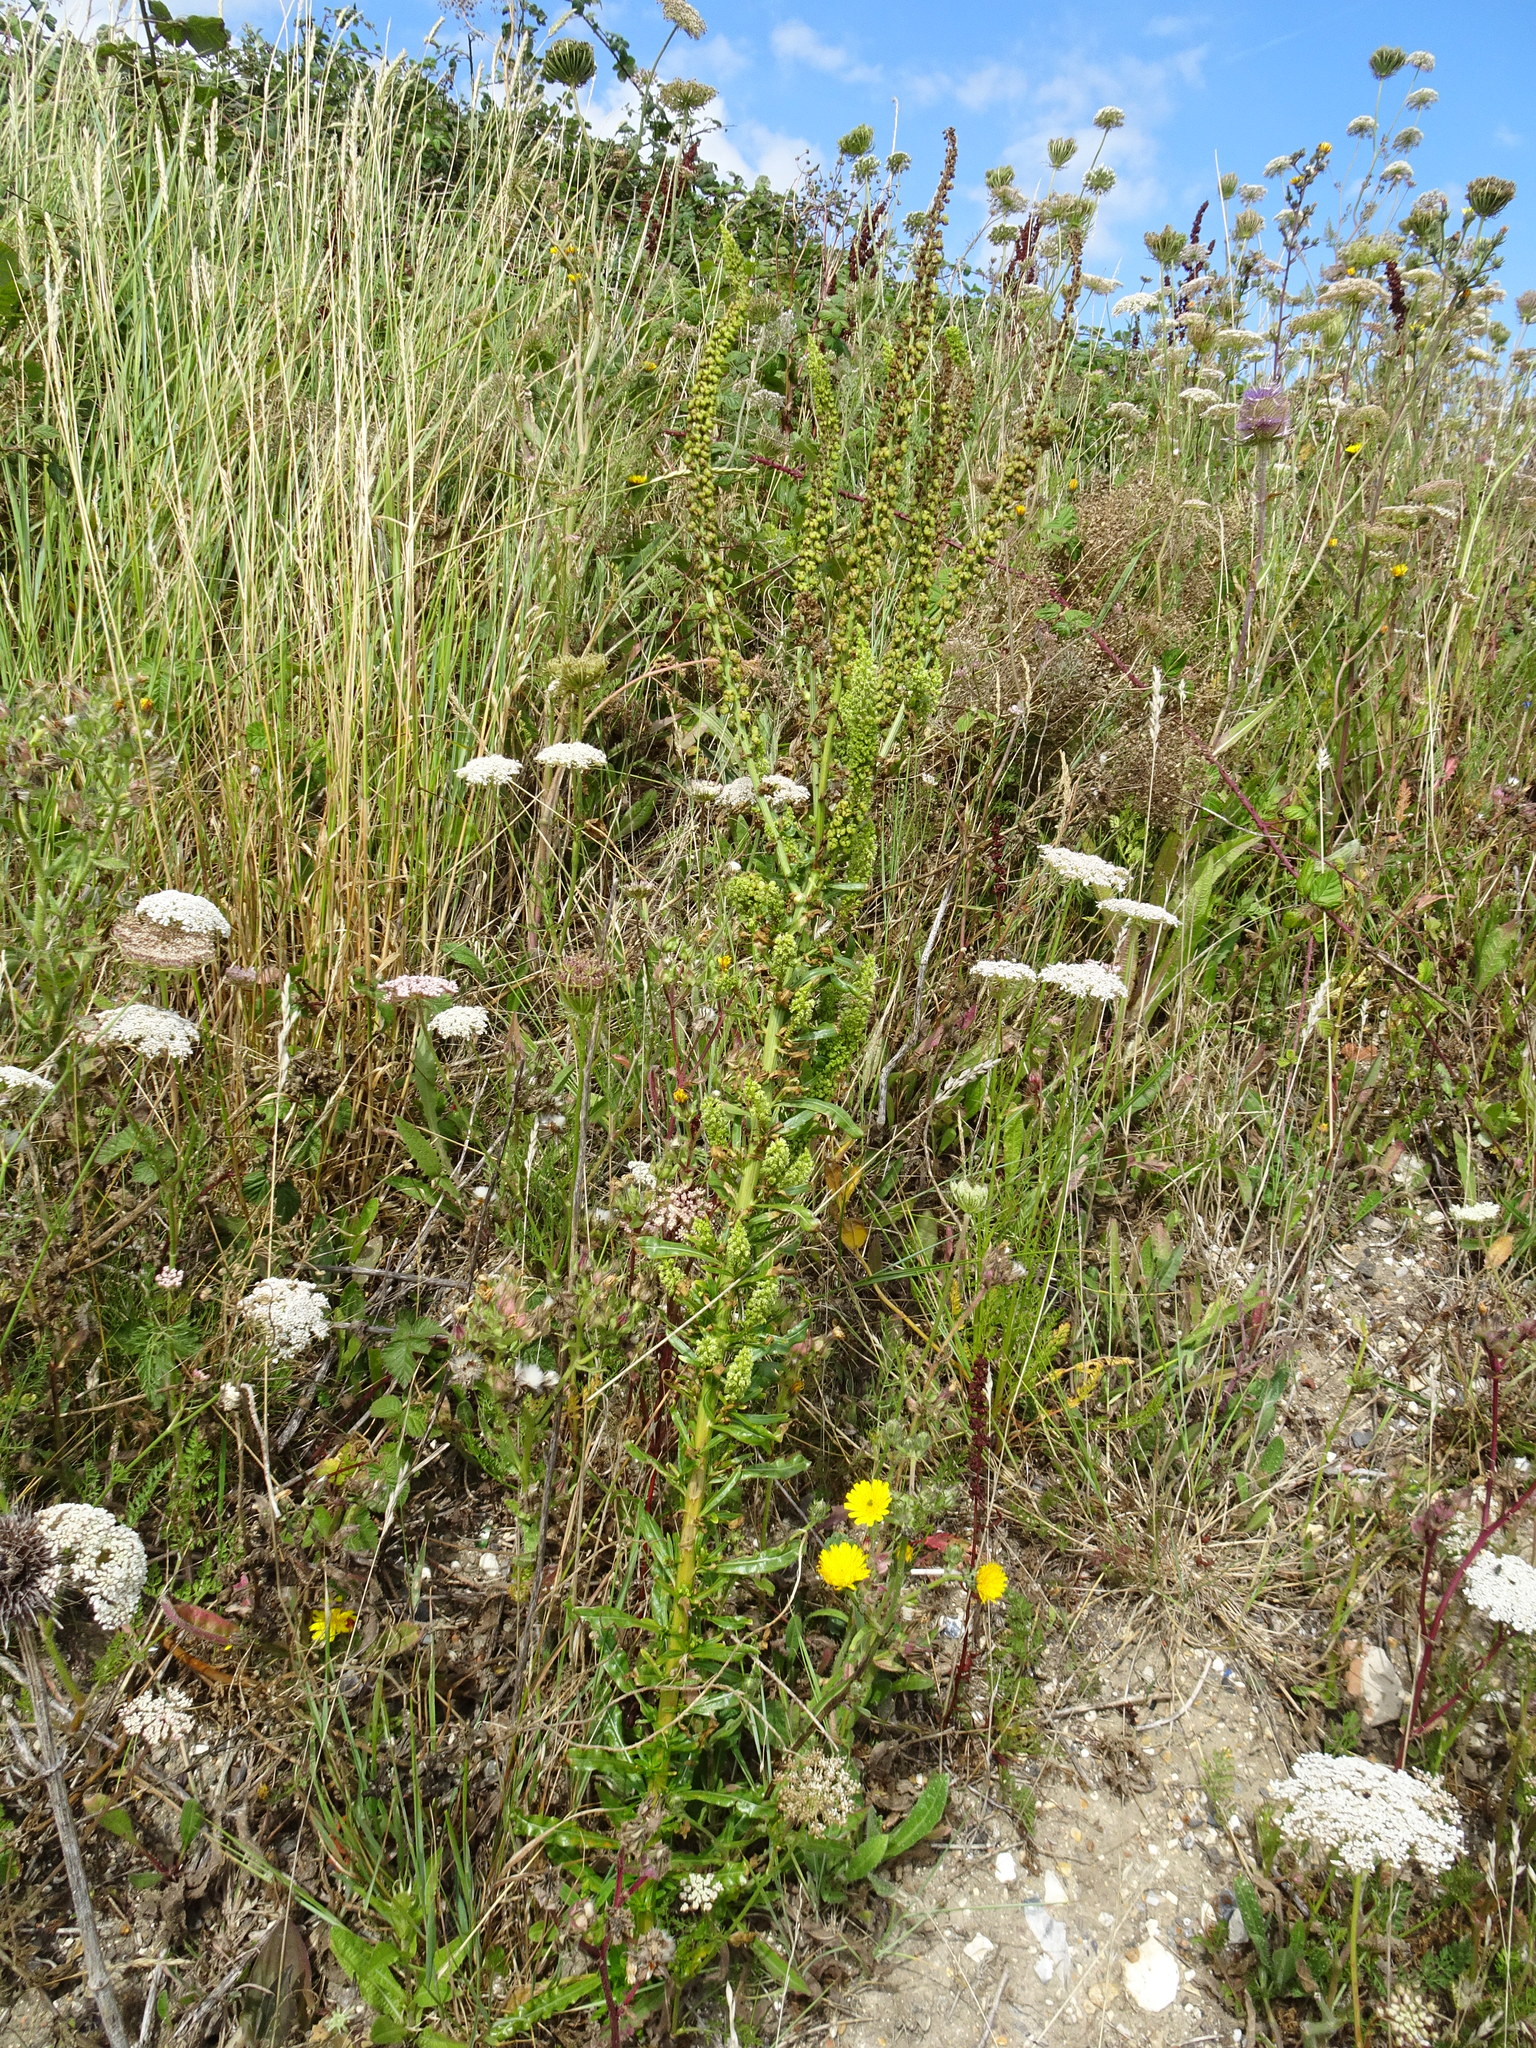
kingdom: Plantae
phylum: Tracheophyta
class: Magnoliopsida
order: Brassicales
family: Resedaceae
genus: Reseda
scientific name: Reseda luteola
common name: Weld
